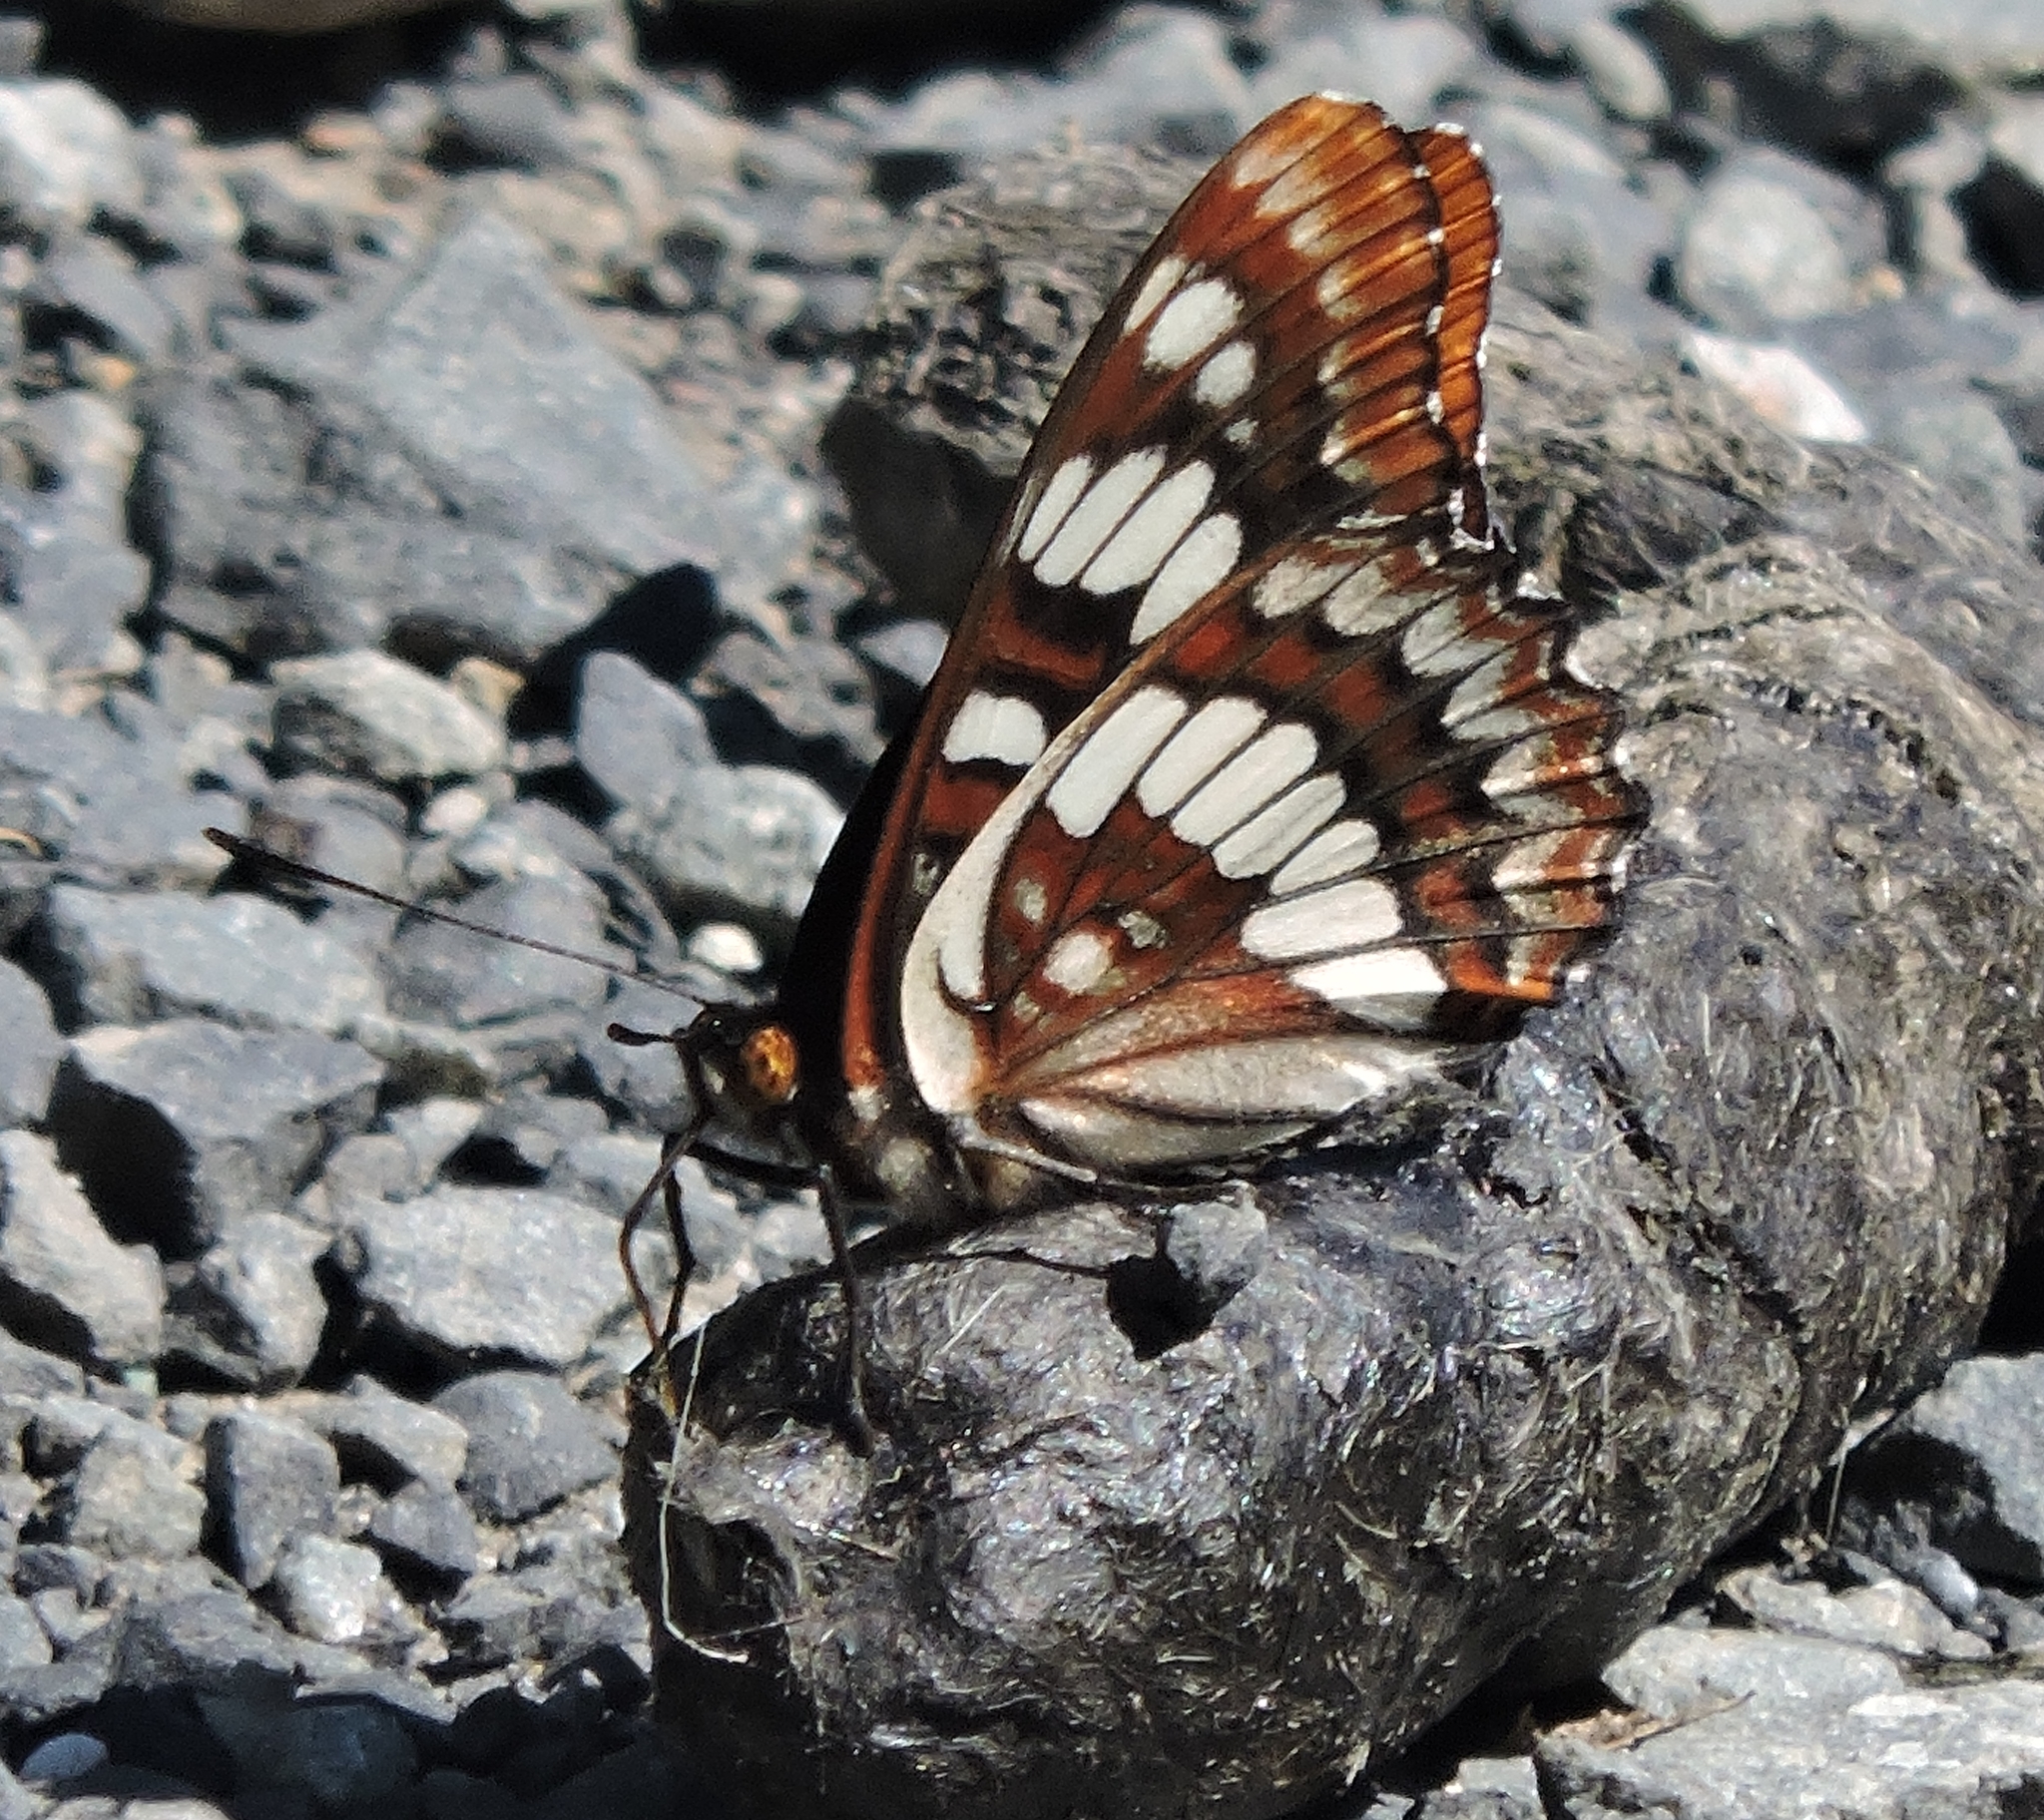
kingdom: Animalia
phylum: Arthropoda
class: Insecta
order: Lepidoptera
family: Nymphalidae
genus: Limenitis
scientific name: Limenitis lorquini
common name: Lorquin's admiral
